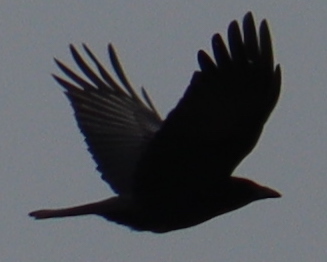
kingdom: Animalia
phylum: Chordata
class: Aves
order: Passeriformes
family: Corvidae
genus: Corvus
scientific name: Corvus corone
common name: Carrion crow
